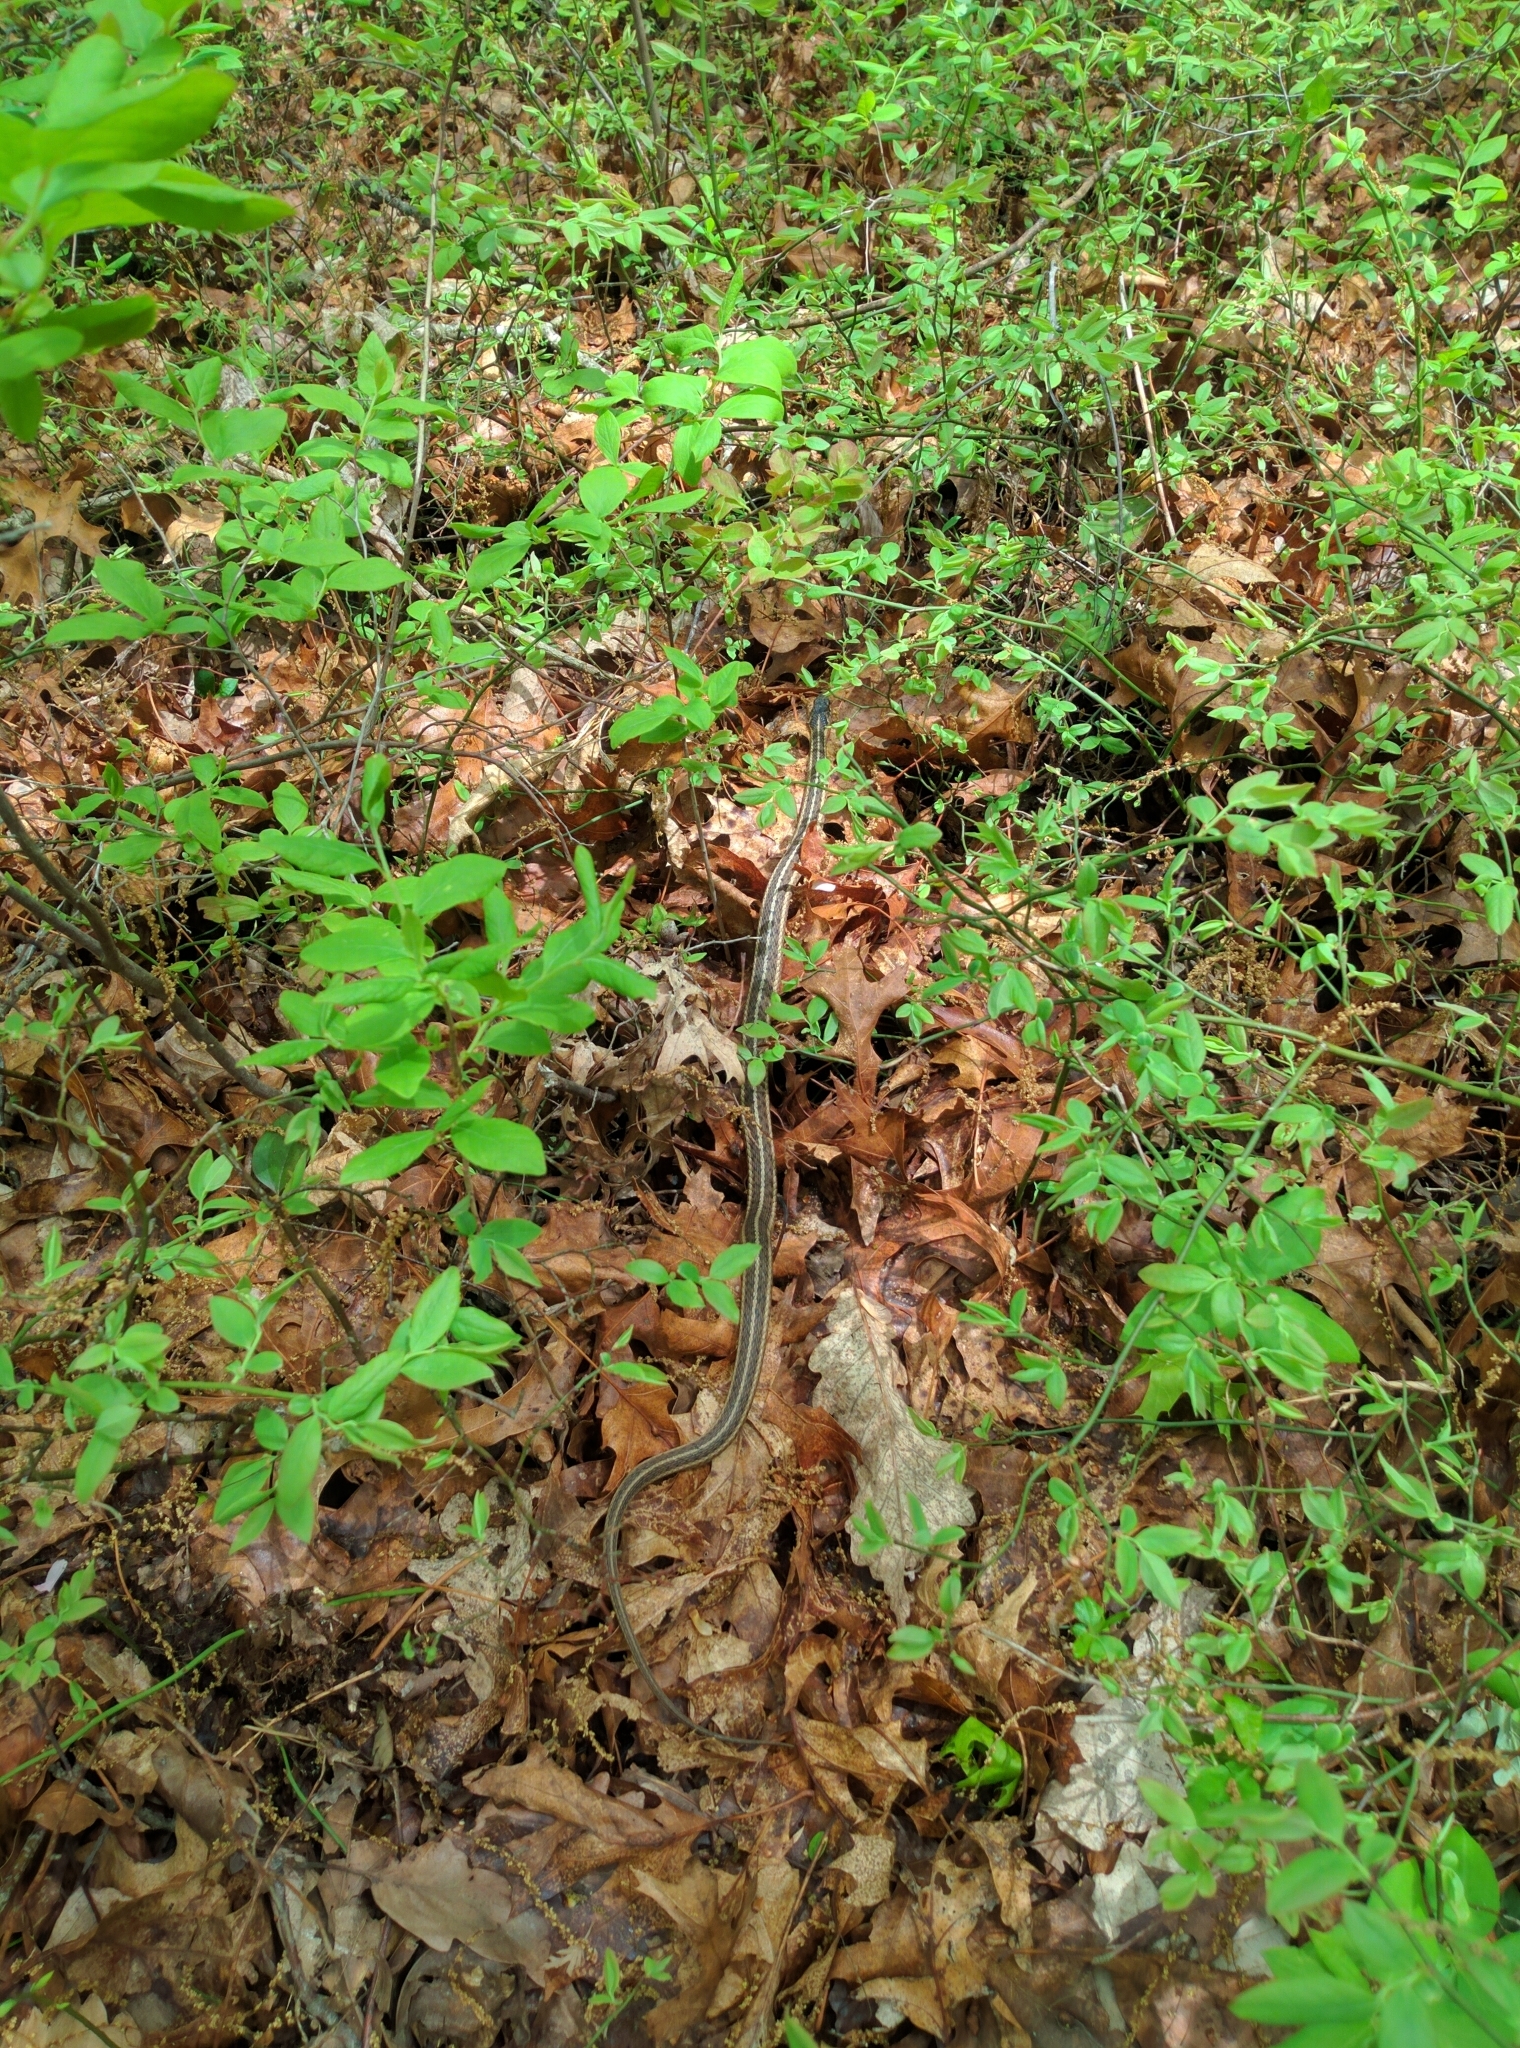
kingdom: Animalia
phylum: Chordata
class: Squamata
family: Colubridae
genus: Thamnophis
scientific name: Thamnophis sirtalis
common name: Common garter snake
